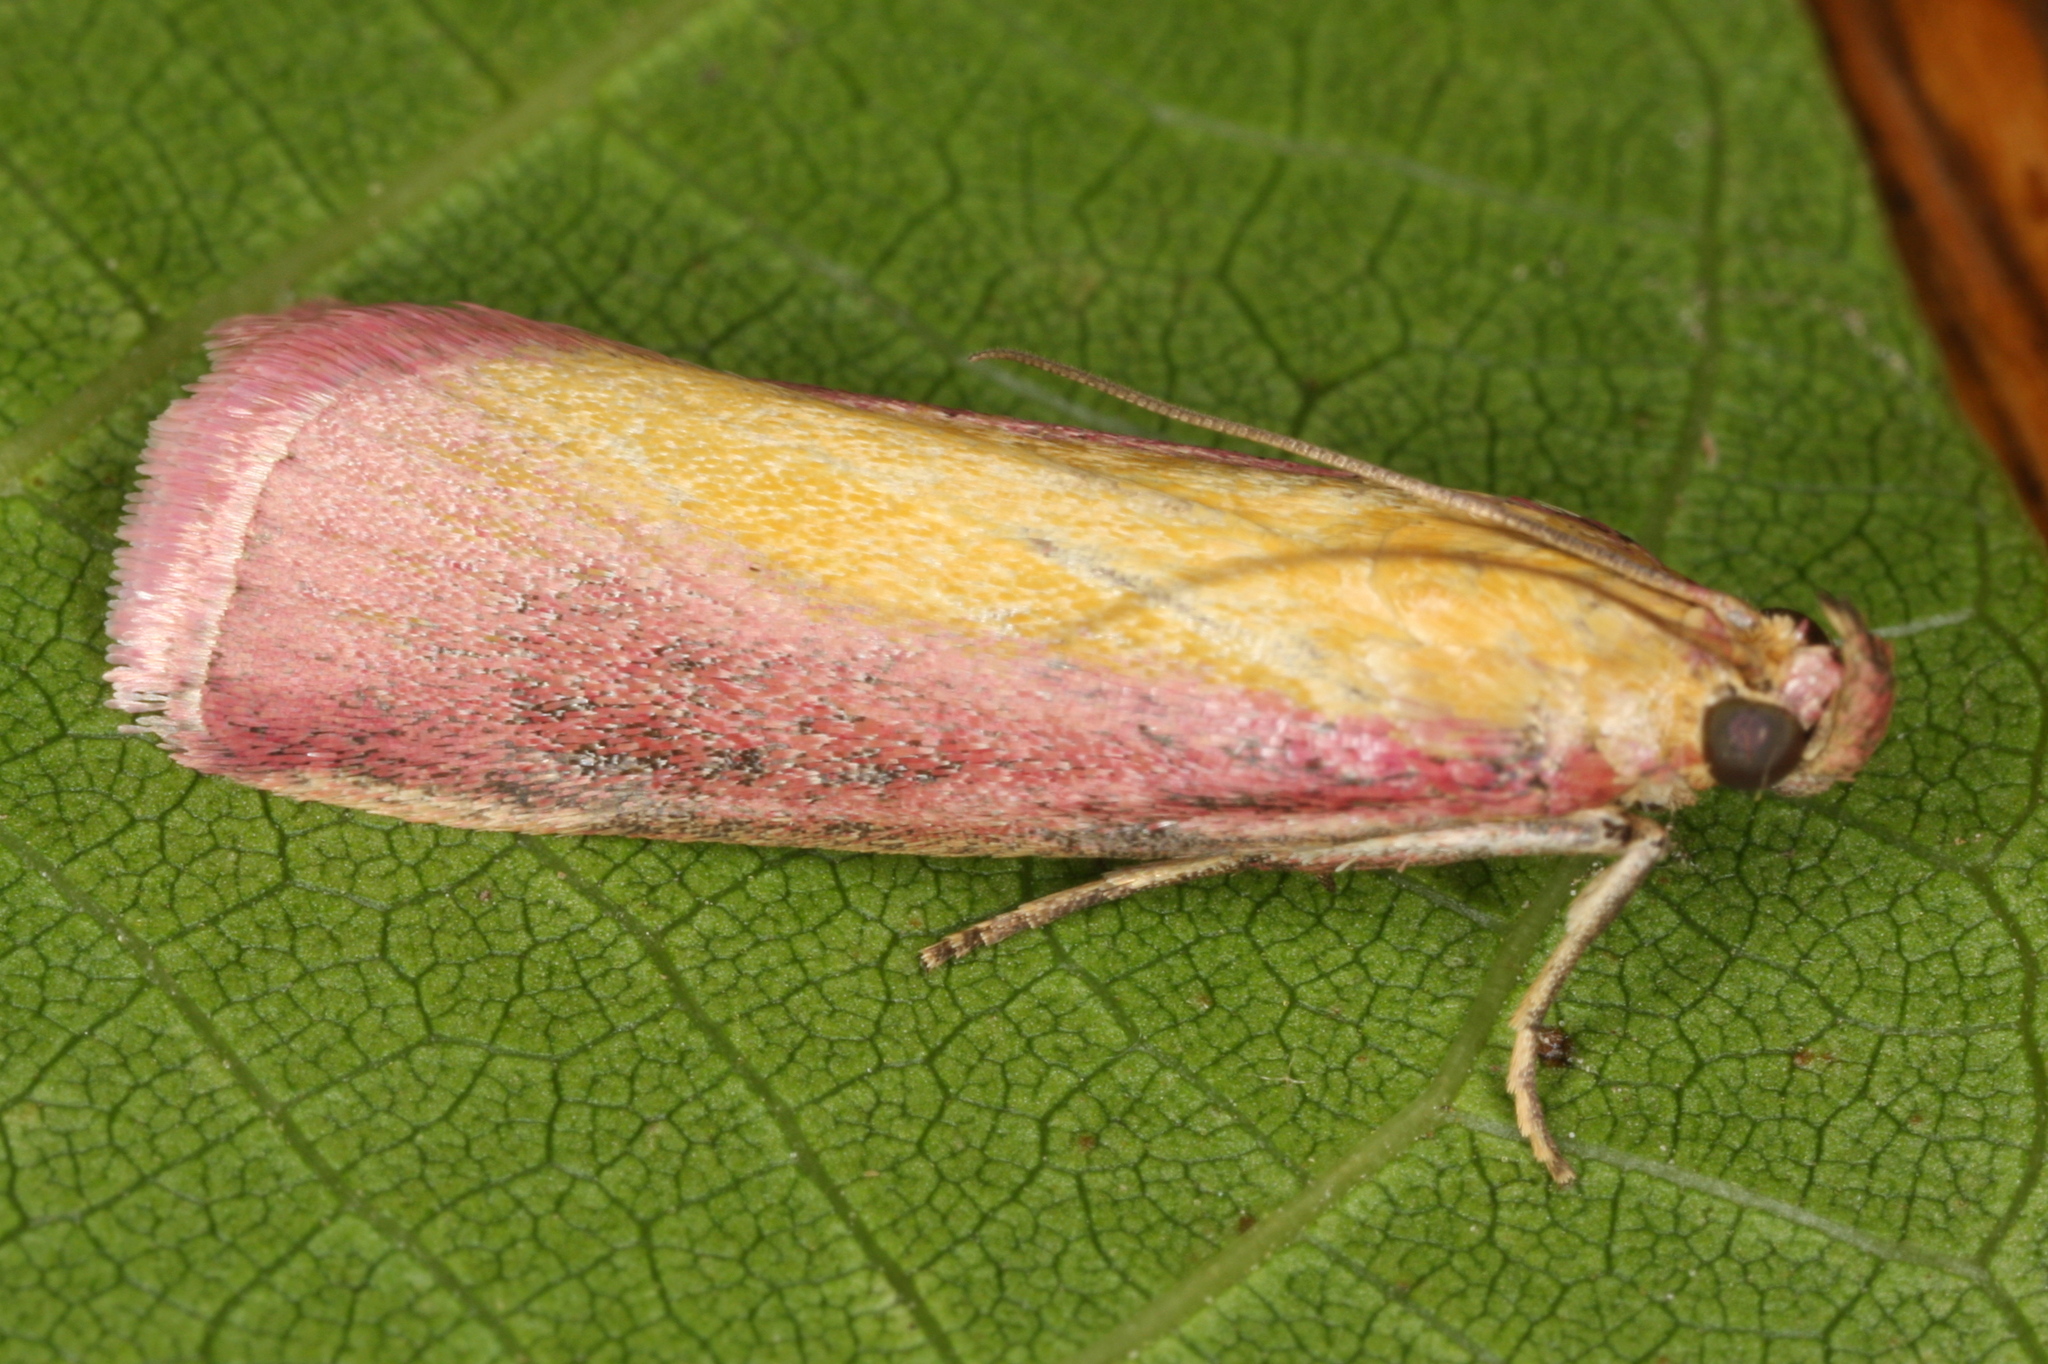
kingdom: Animalia
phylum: Arthropoda
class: Insecta
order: Lepidoptera
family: Pyralidae
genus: Oncocera
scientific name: Oncocera semirubella
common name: Rosy-striped knot-horn
